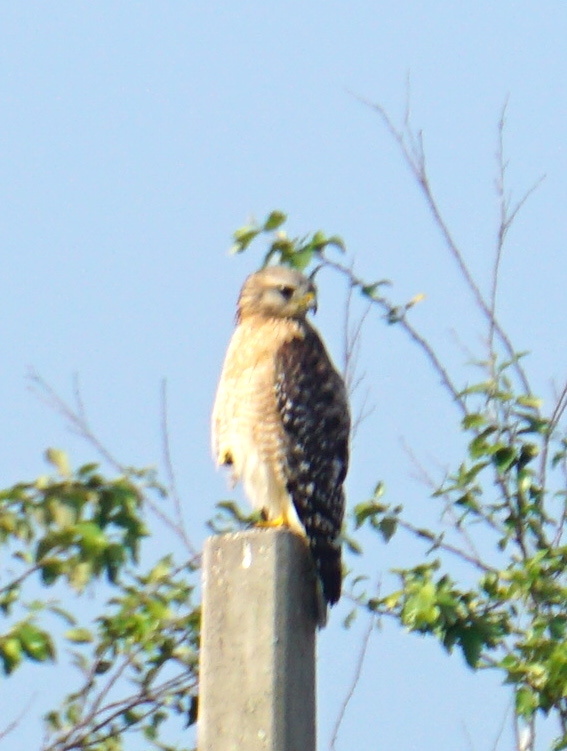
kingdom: Animalia
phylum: Chordata
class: Aves
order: Accipitriformes
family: Accipitridae
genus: Buteo
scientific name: Buteo lineatus
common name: Red-shouldered hawk
